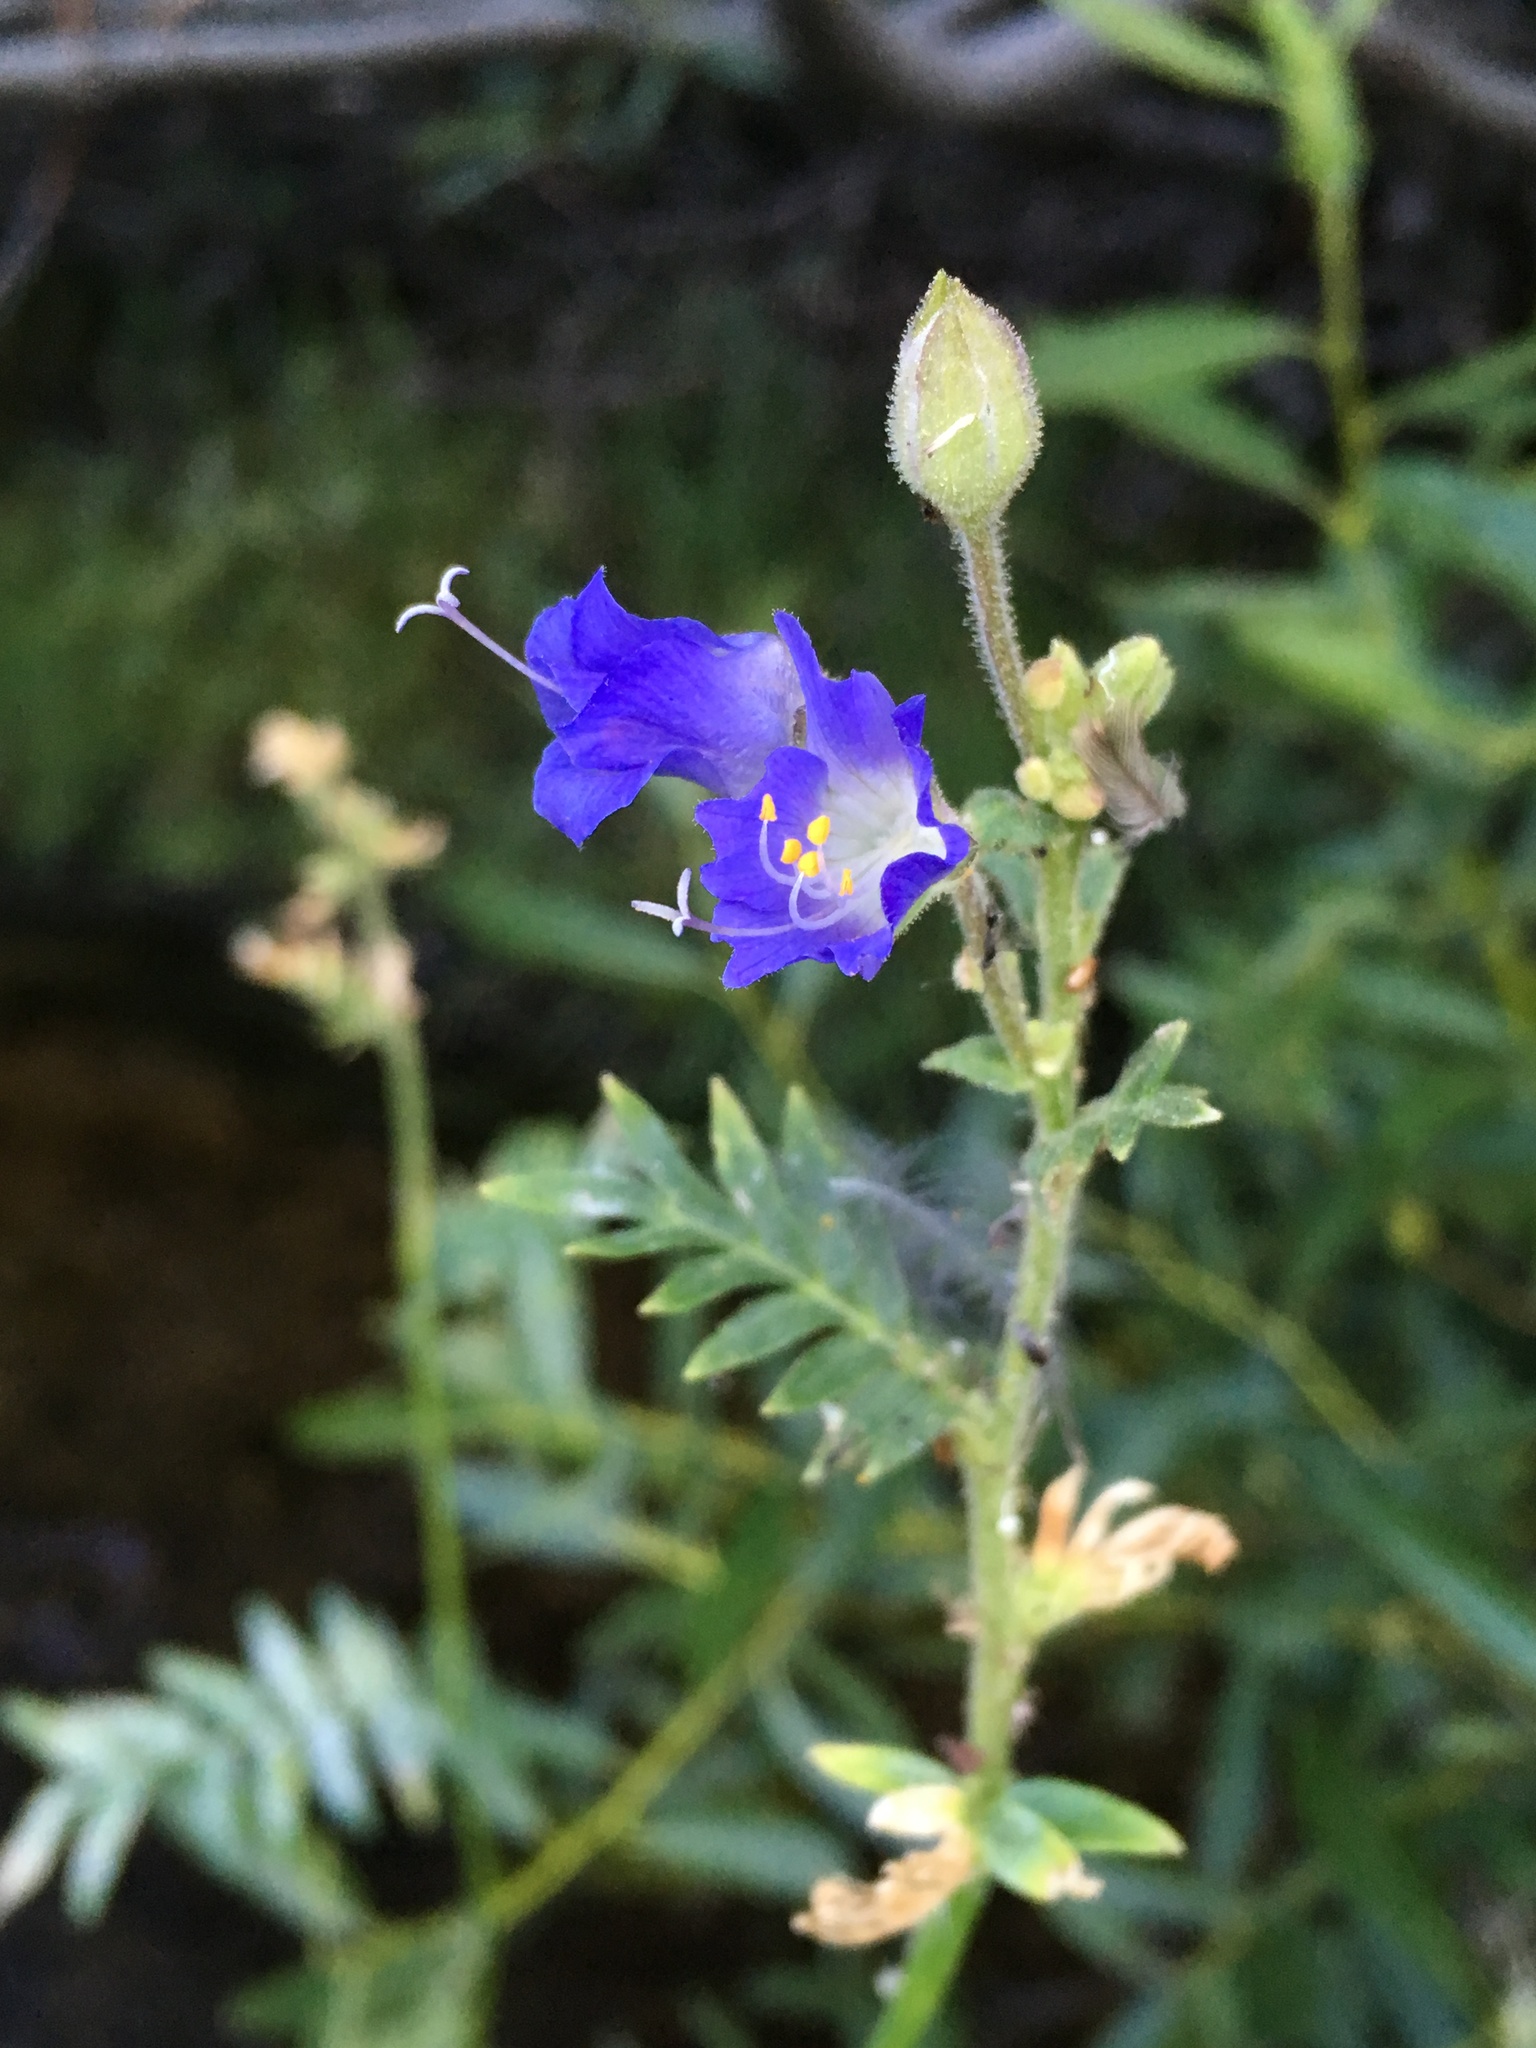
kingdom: Plantae
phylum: Tracheophyta
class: Magnoliopsida
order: Ericales
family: Polemoniaceae
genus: Polemonium
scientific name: Polemonium occidentale
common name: Western jacob's-ladder
